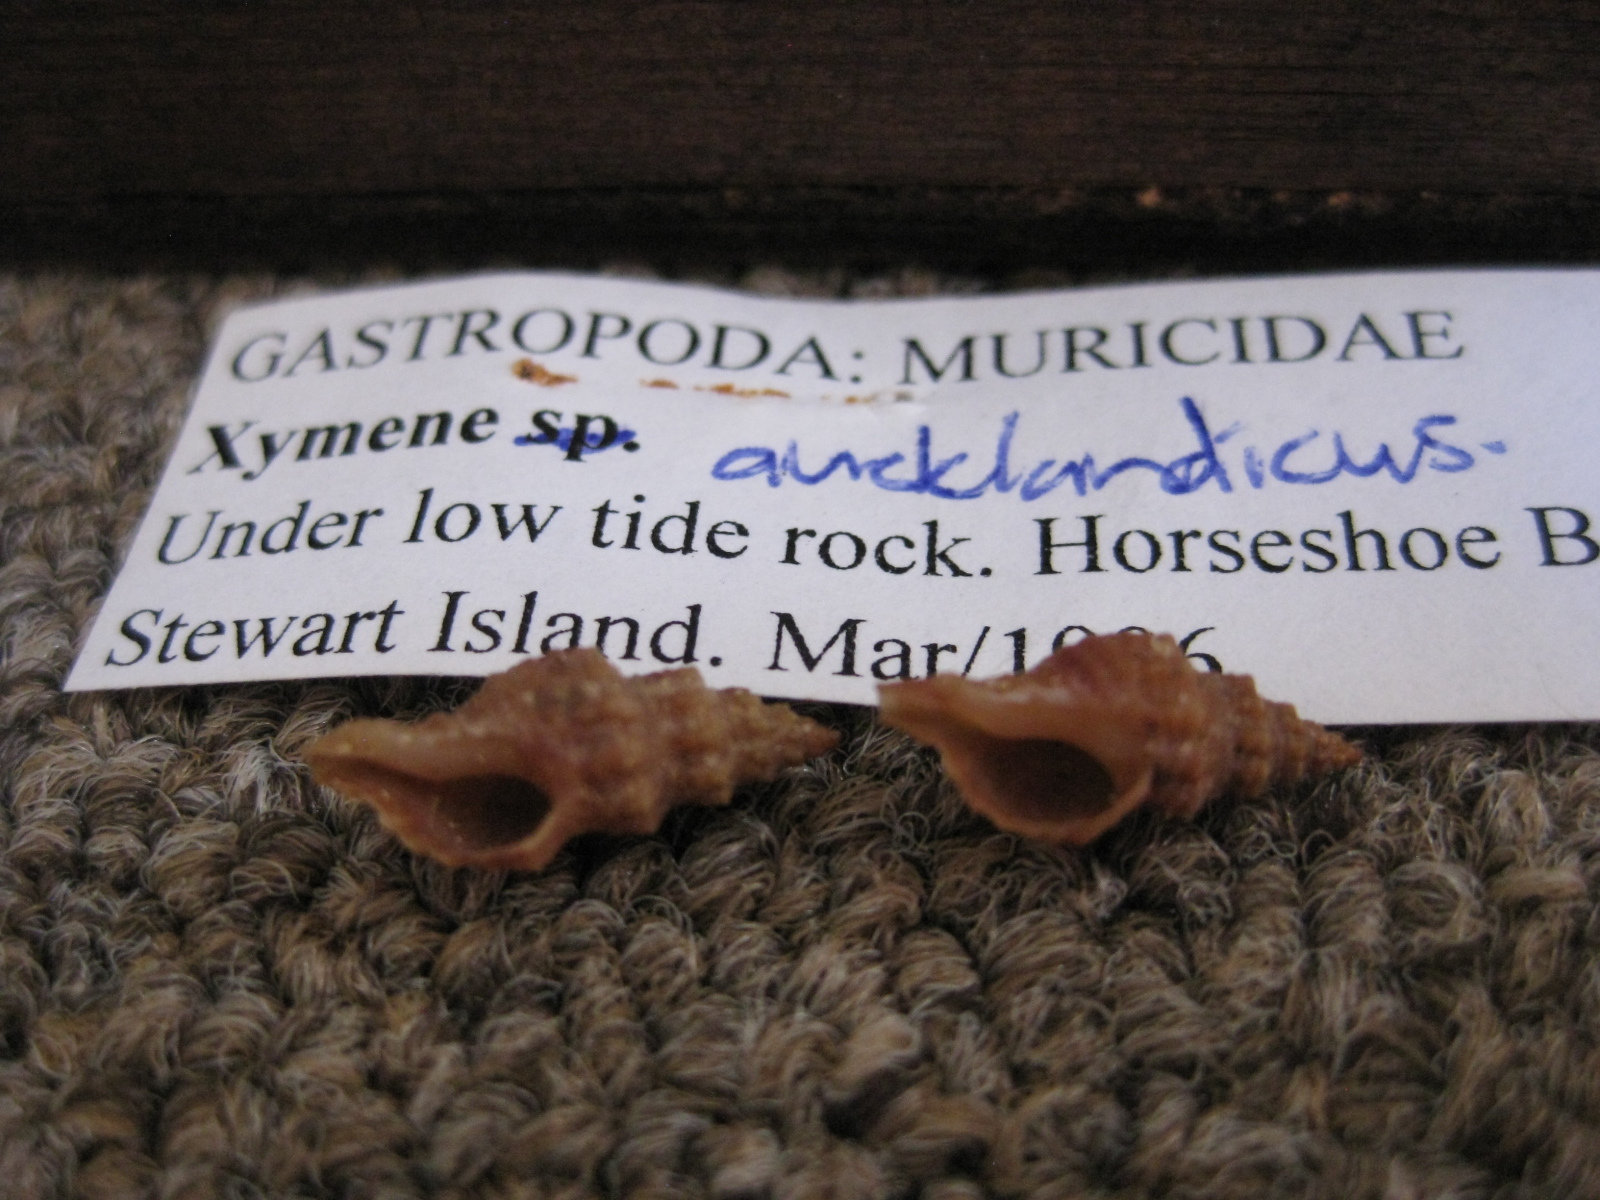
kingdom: Animalia
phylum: Mollusca
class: Gastropoda
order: Neogastropoda
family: Muricidae
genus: Axymene
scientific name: Axymene aucklandicus
